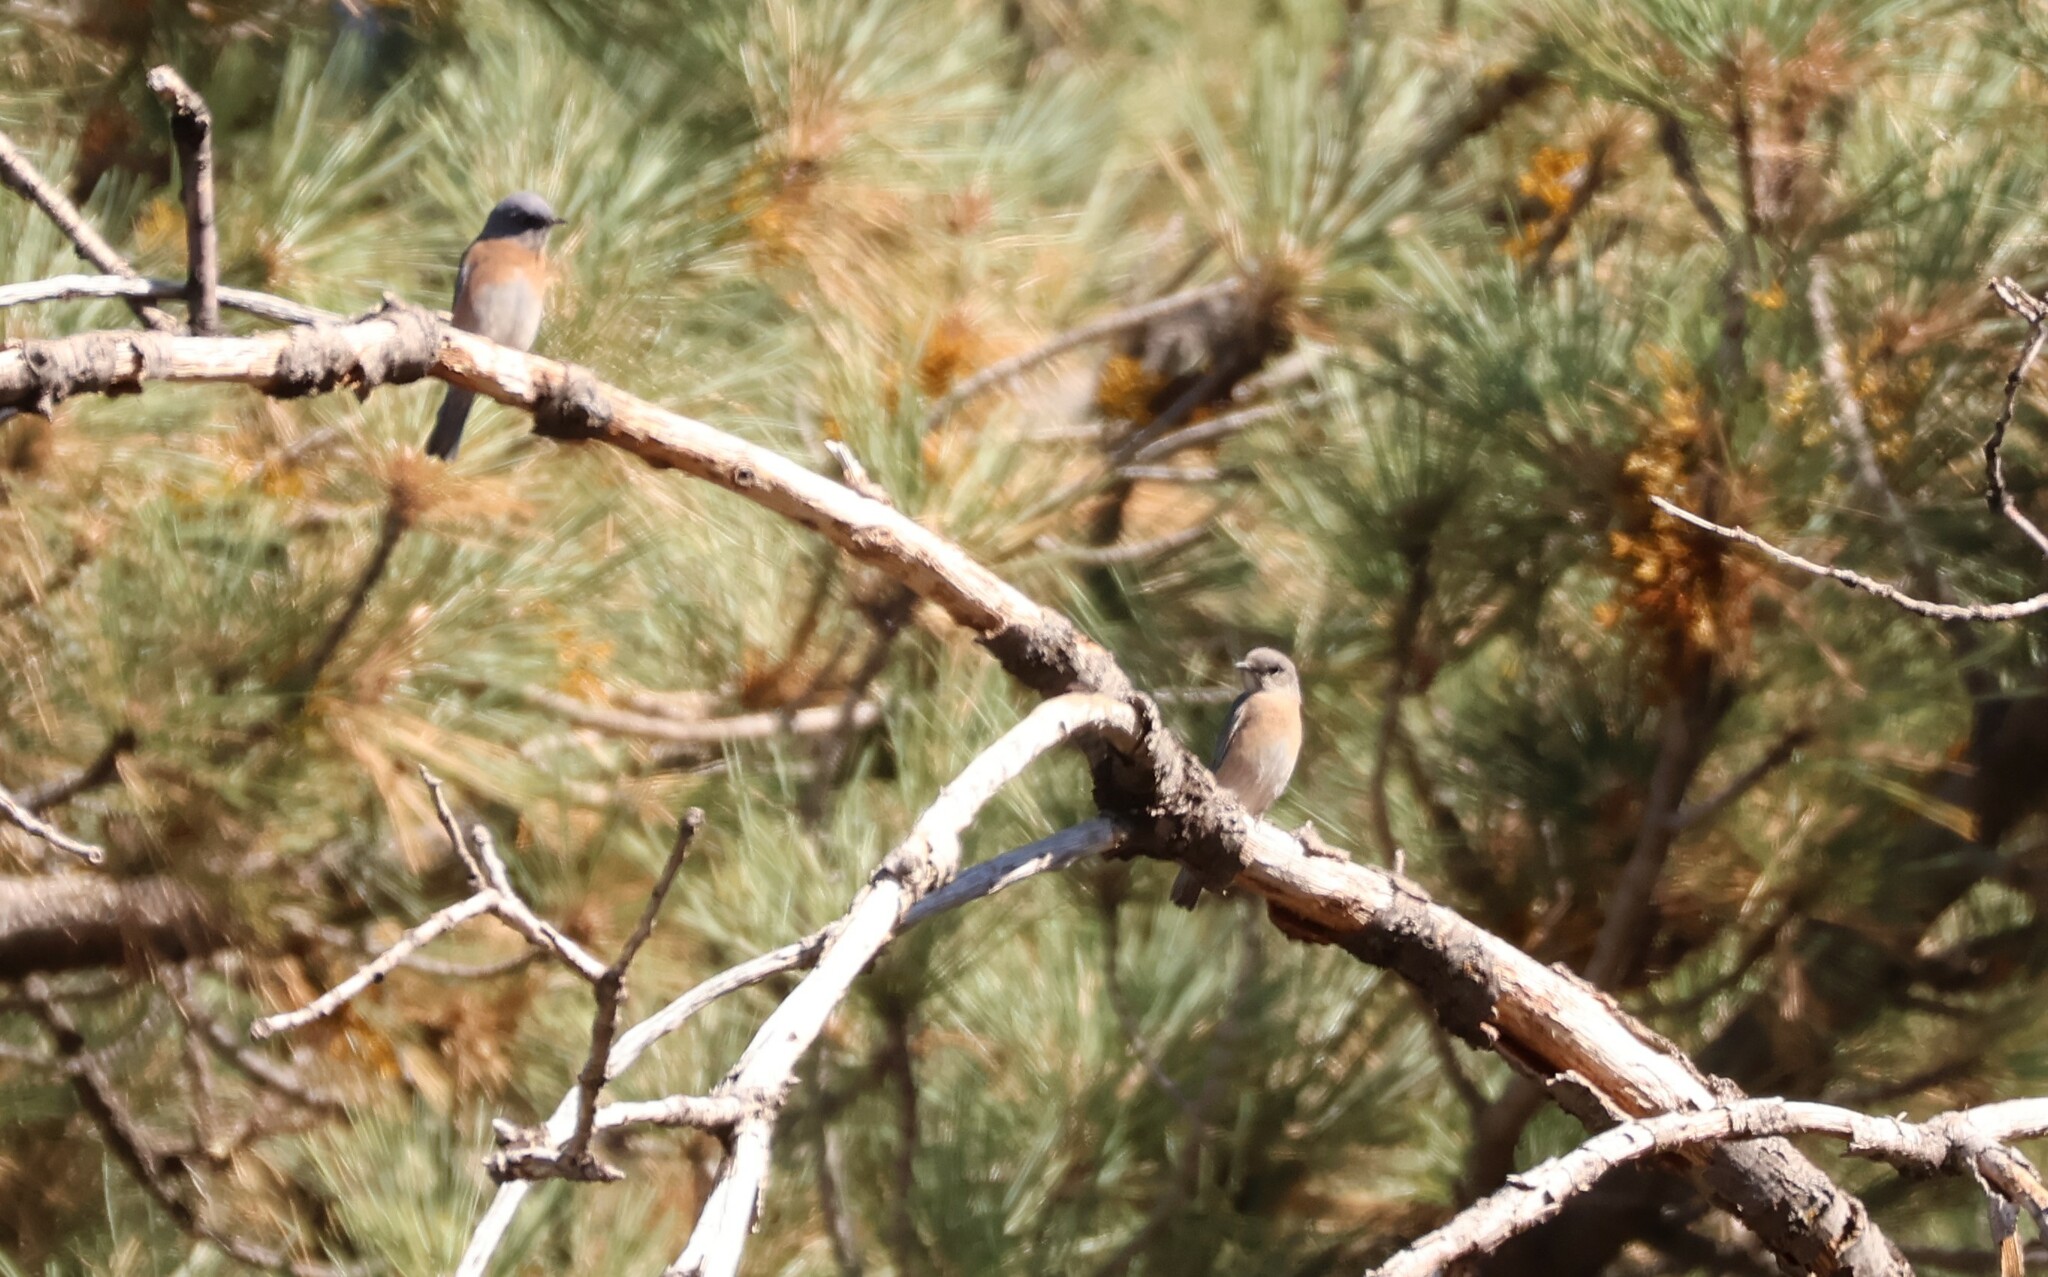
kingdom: Animalia
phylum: Chordata
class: Aves
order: Passeriformes
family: Turdidae
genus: Sialia
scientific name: Sialia mexicana
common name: Western bluebird
